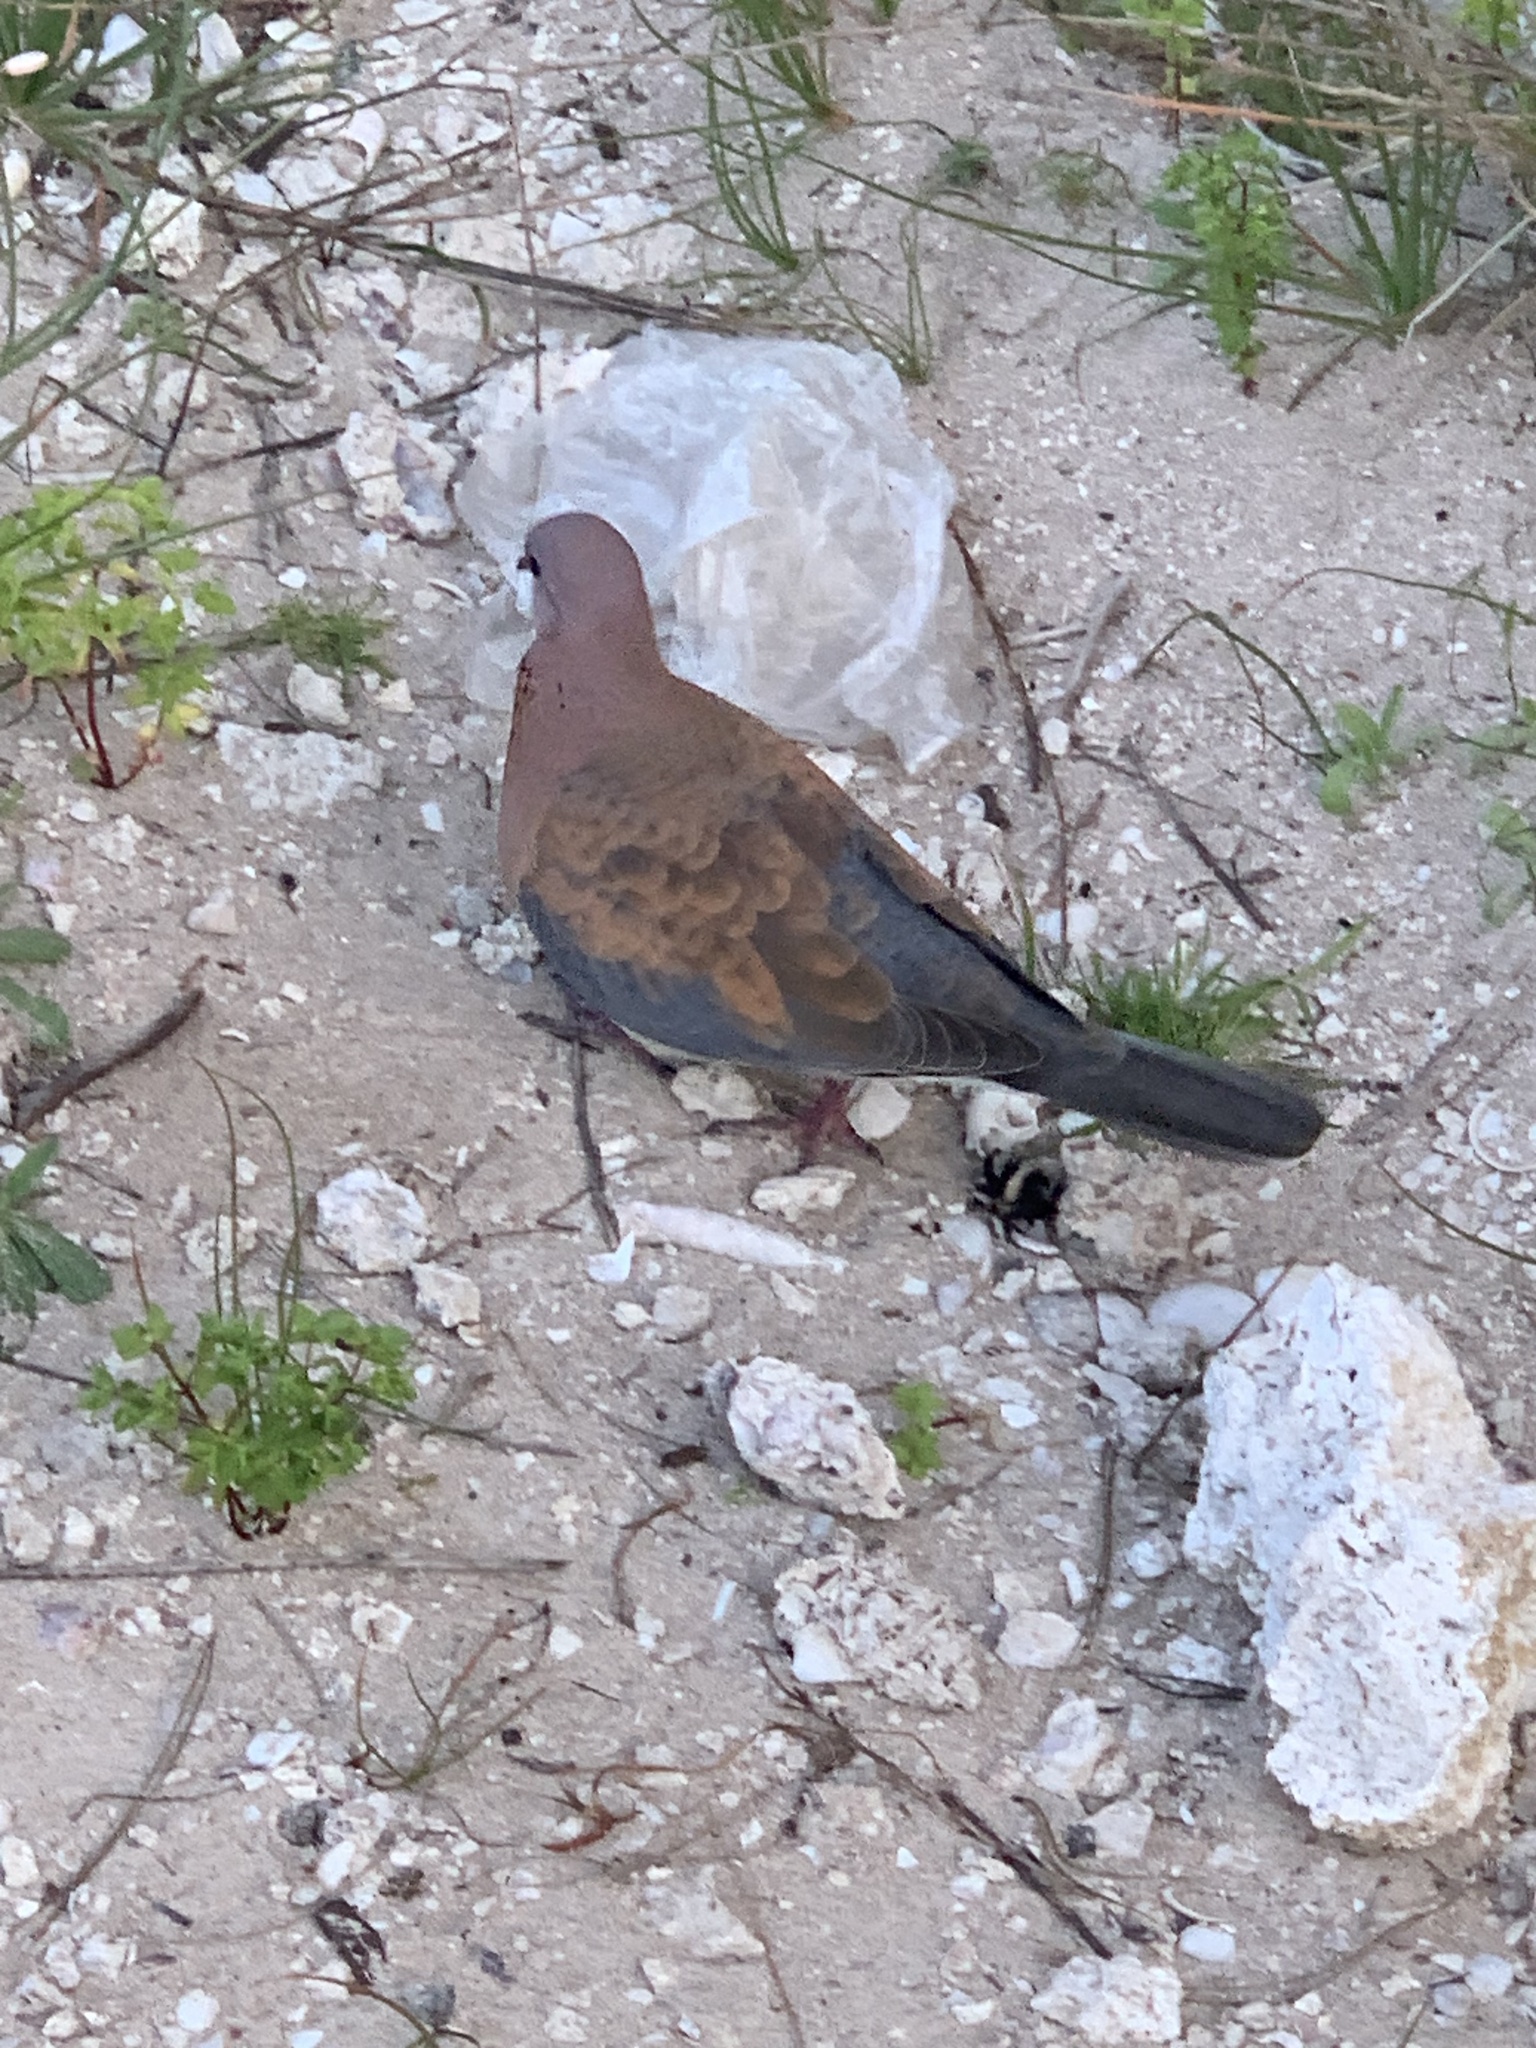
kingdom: Animalia
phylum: Chordata
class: Aves
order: Columbiformes
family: Columbidae
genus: Spilopelia
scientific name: Spilopelia senegalensis
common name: Laughing dove
